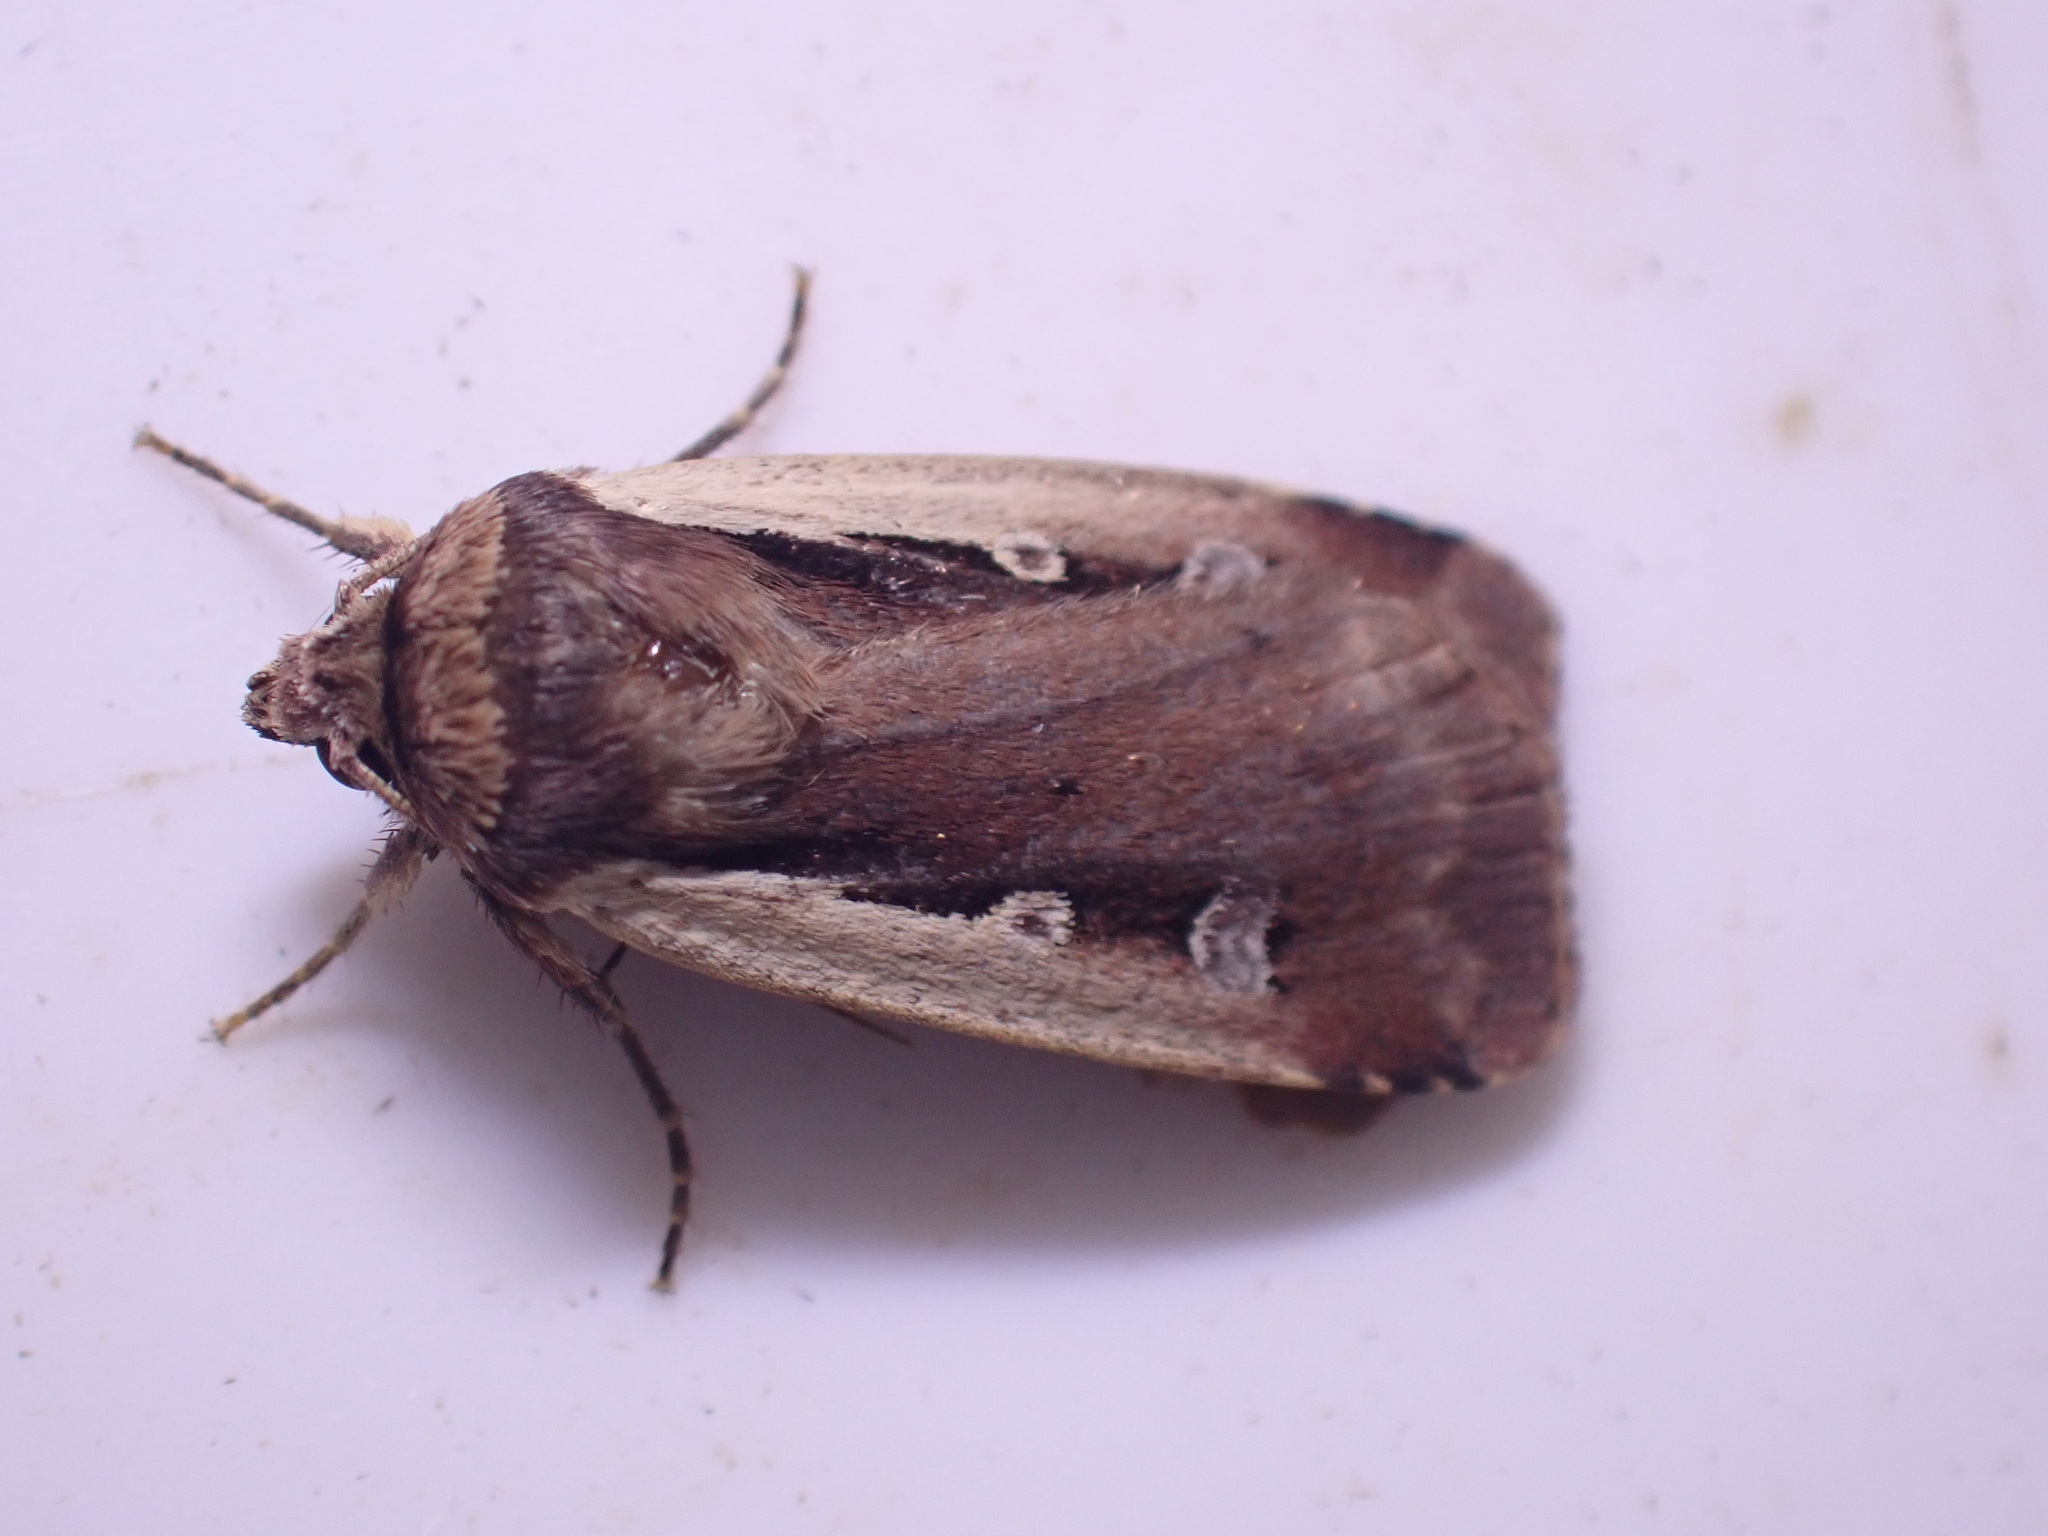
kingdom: Animalia
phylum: Arthropoda
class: Insecta
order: Lepidoptera
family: Noctuidae
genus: Ochropleura
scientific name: Ochropleura plecta
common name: Flame shoulder
